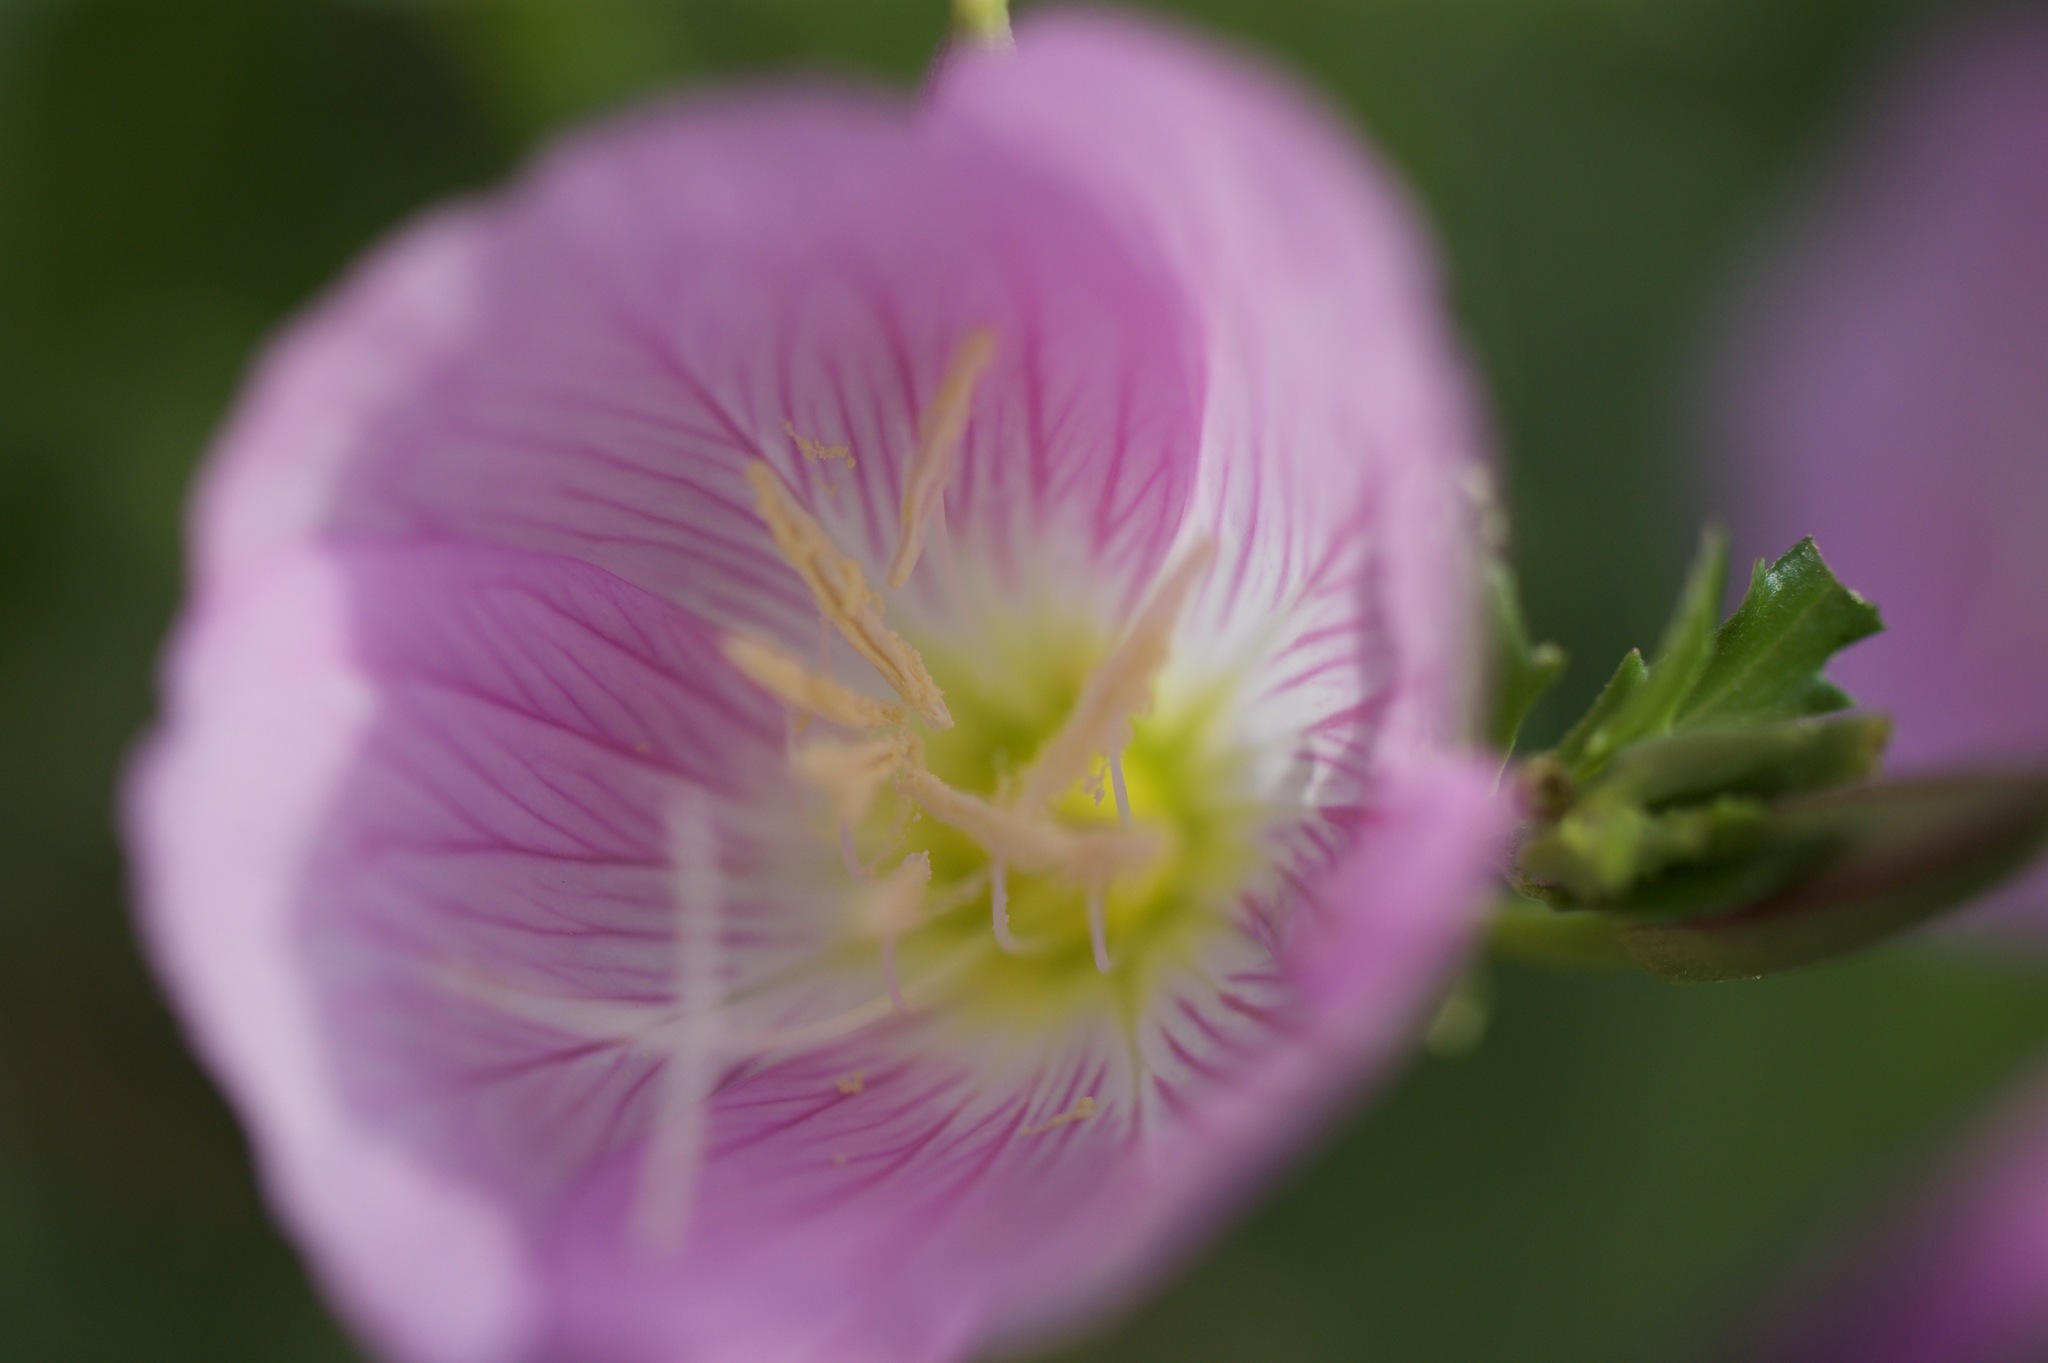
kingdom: Plantae
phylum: Tracheophyta
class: Magnoliopsida
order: Myrtales
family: Onagraceae
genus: Oenothera
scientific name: Oenothera speciosa
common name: White evening-primrose
